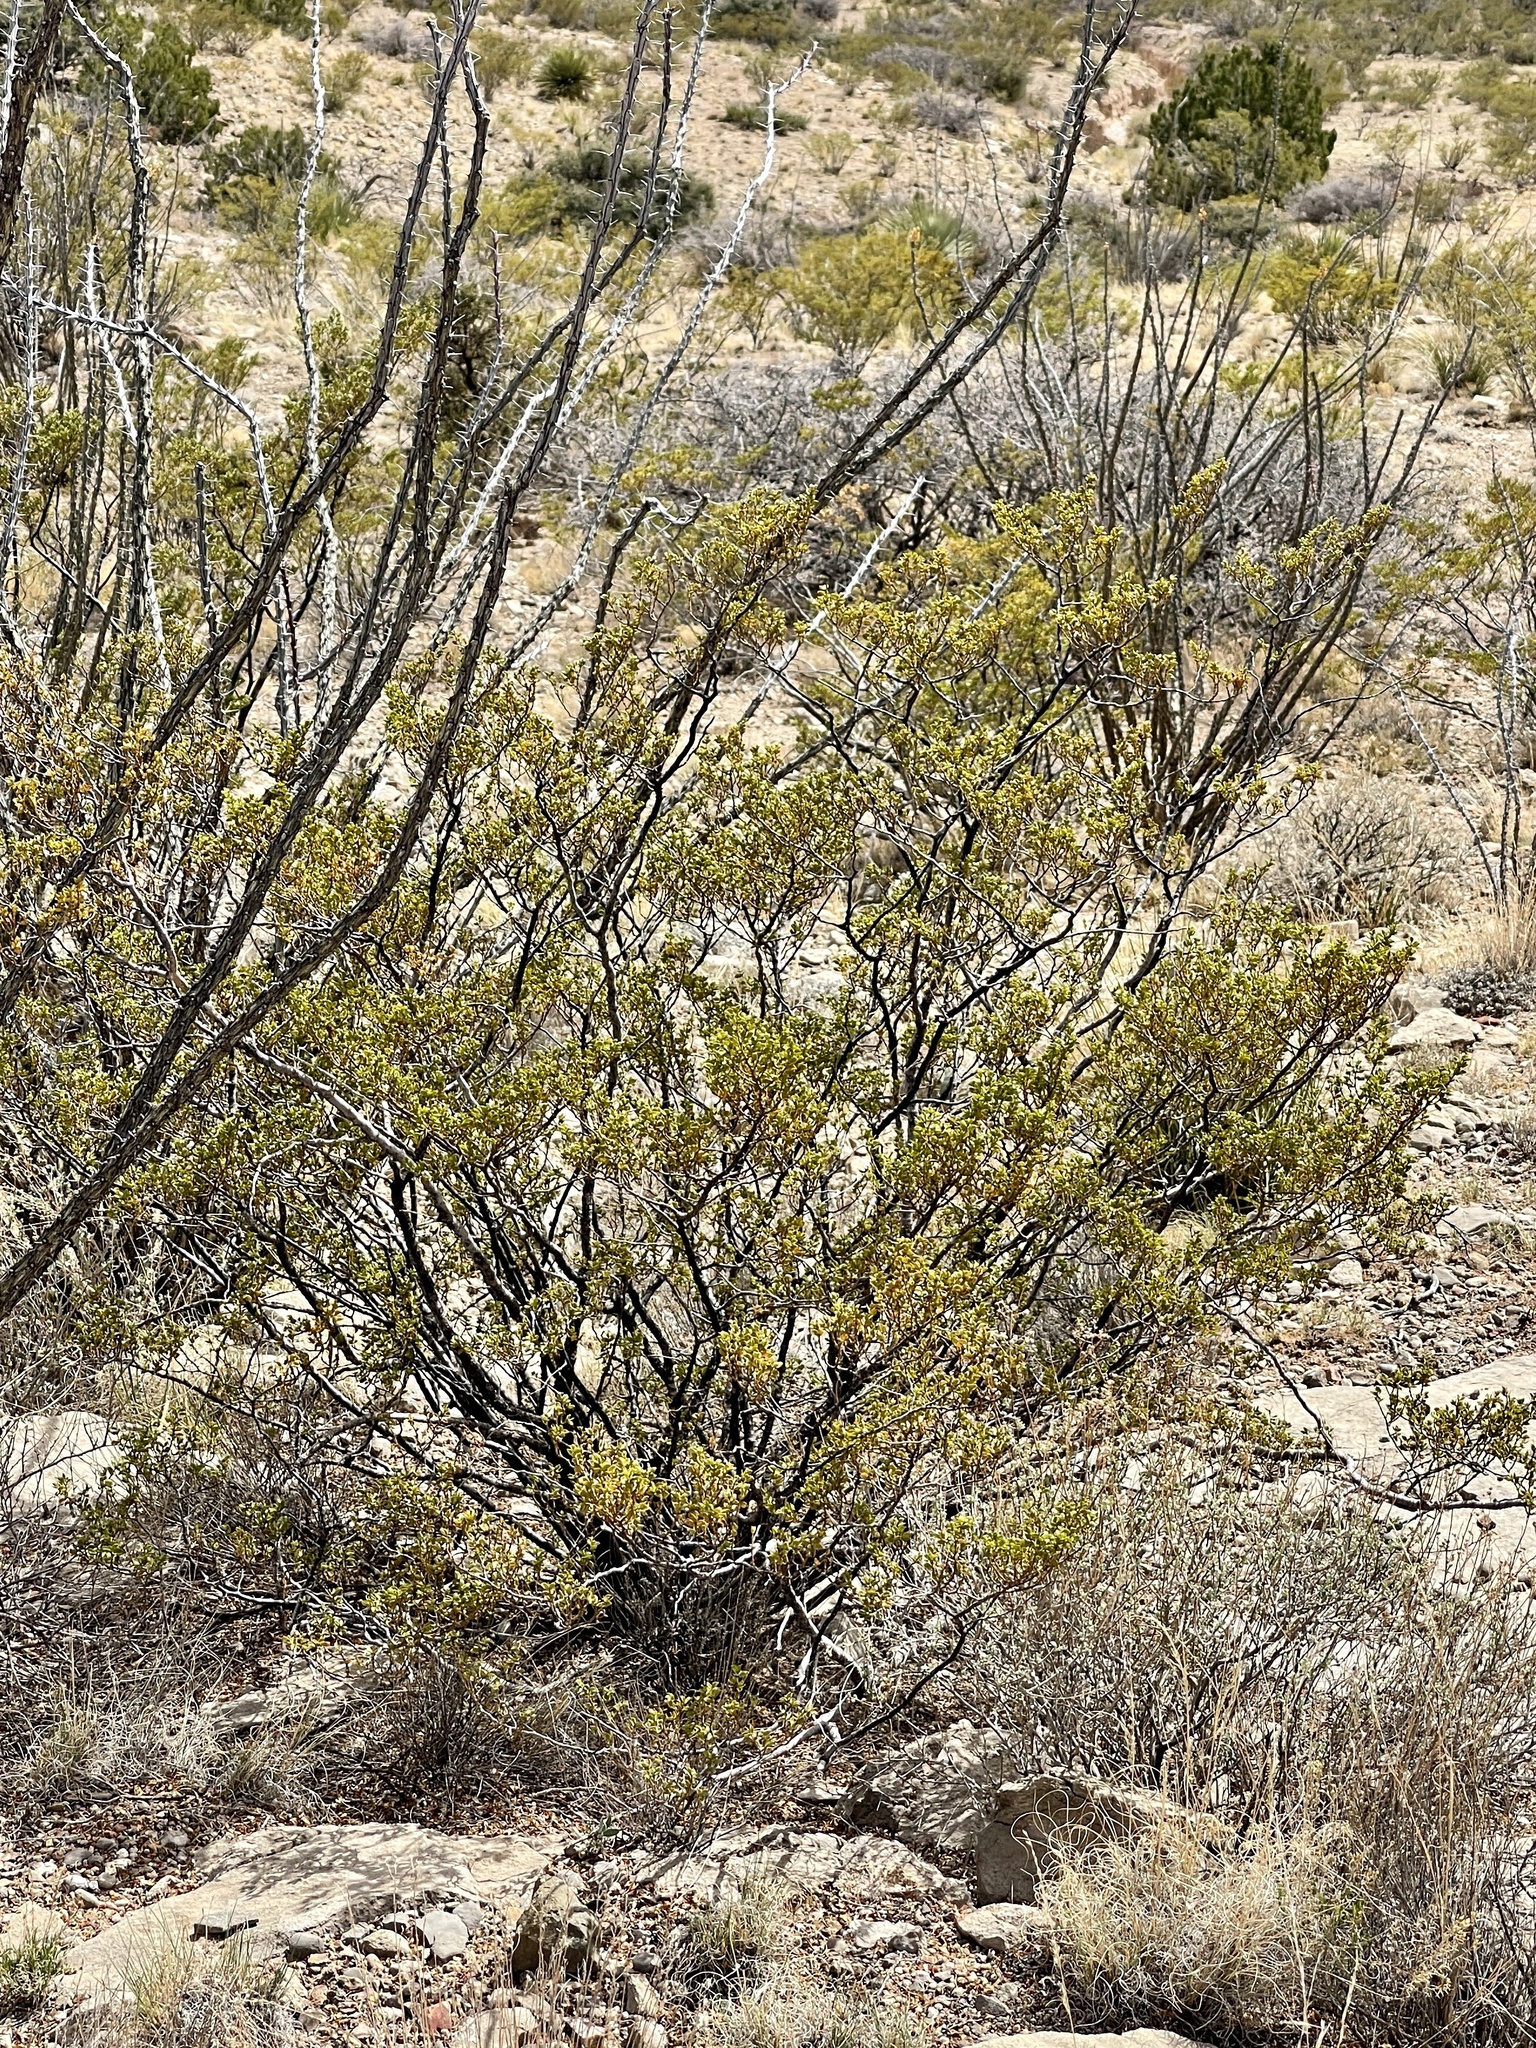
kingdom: Plantae
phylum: Tracheophyta
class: Magnoliopsida
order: Zygophyllales
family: Zygophyllaceae
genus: Larrea
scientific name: Larrea tridentata
